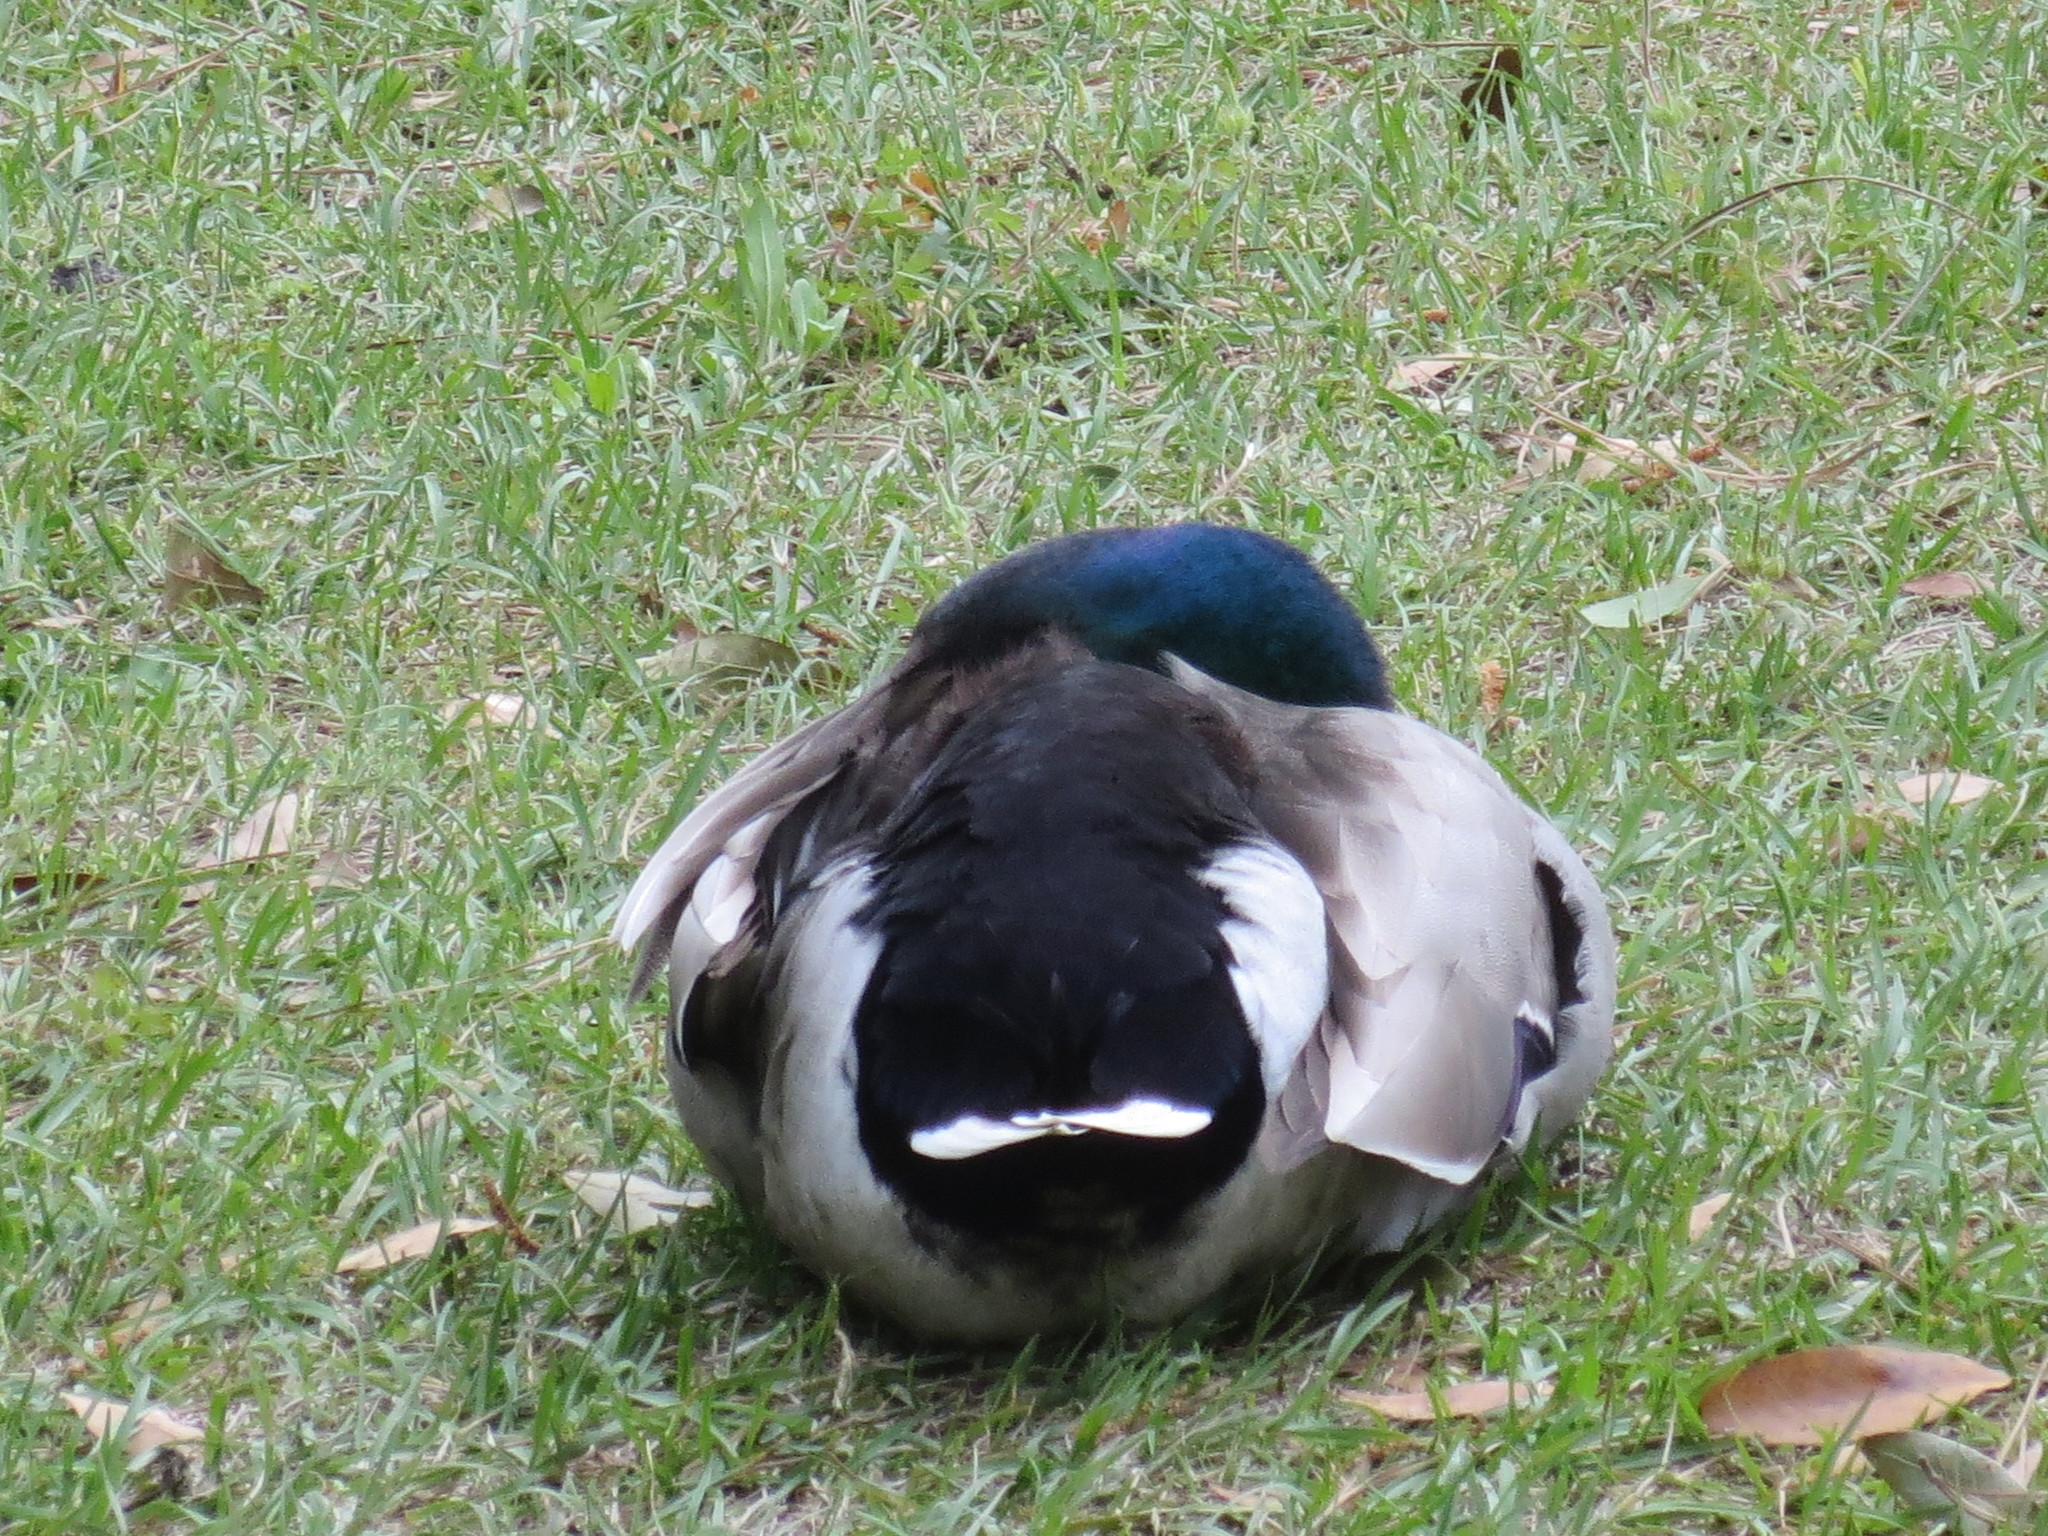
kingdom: Animalia
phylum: Chordata
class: Aves
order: Anseriformes
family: Anatidae
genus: Anas
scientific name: Anas platyrhynchos
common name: Mallard
